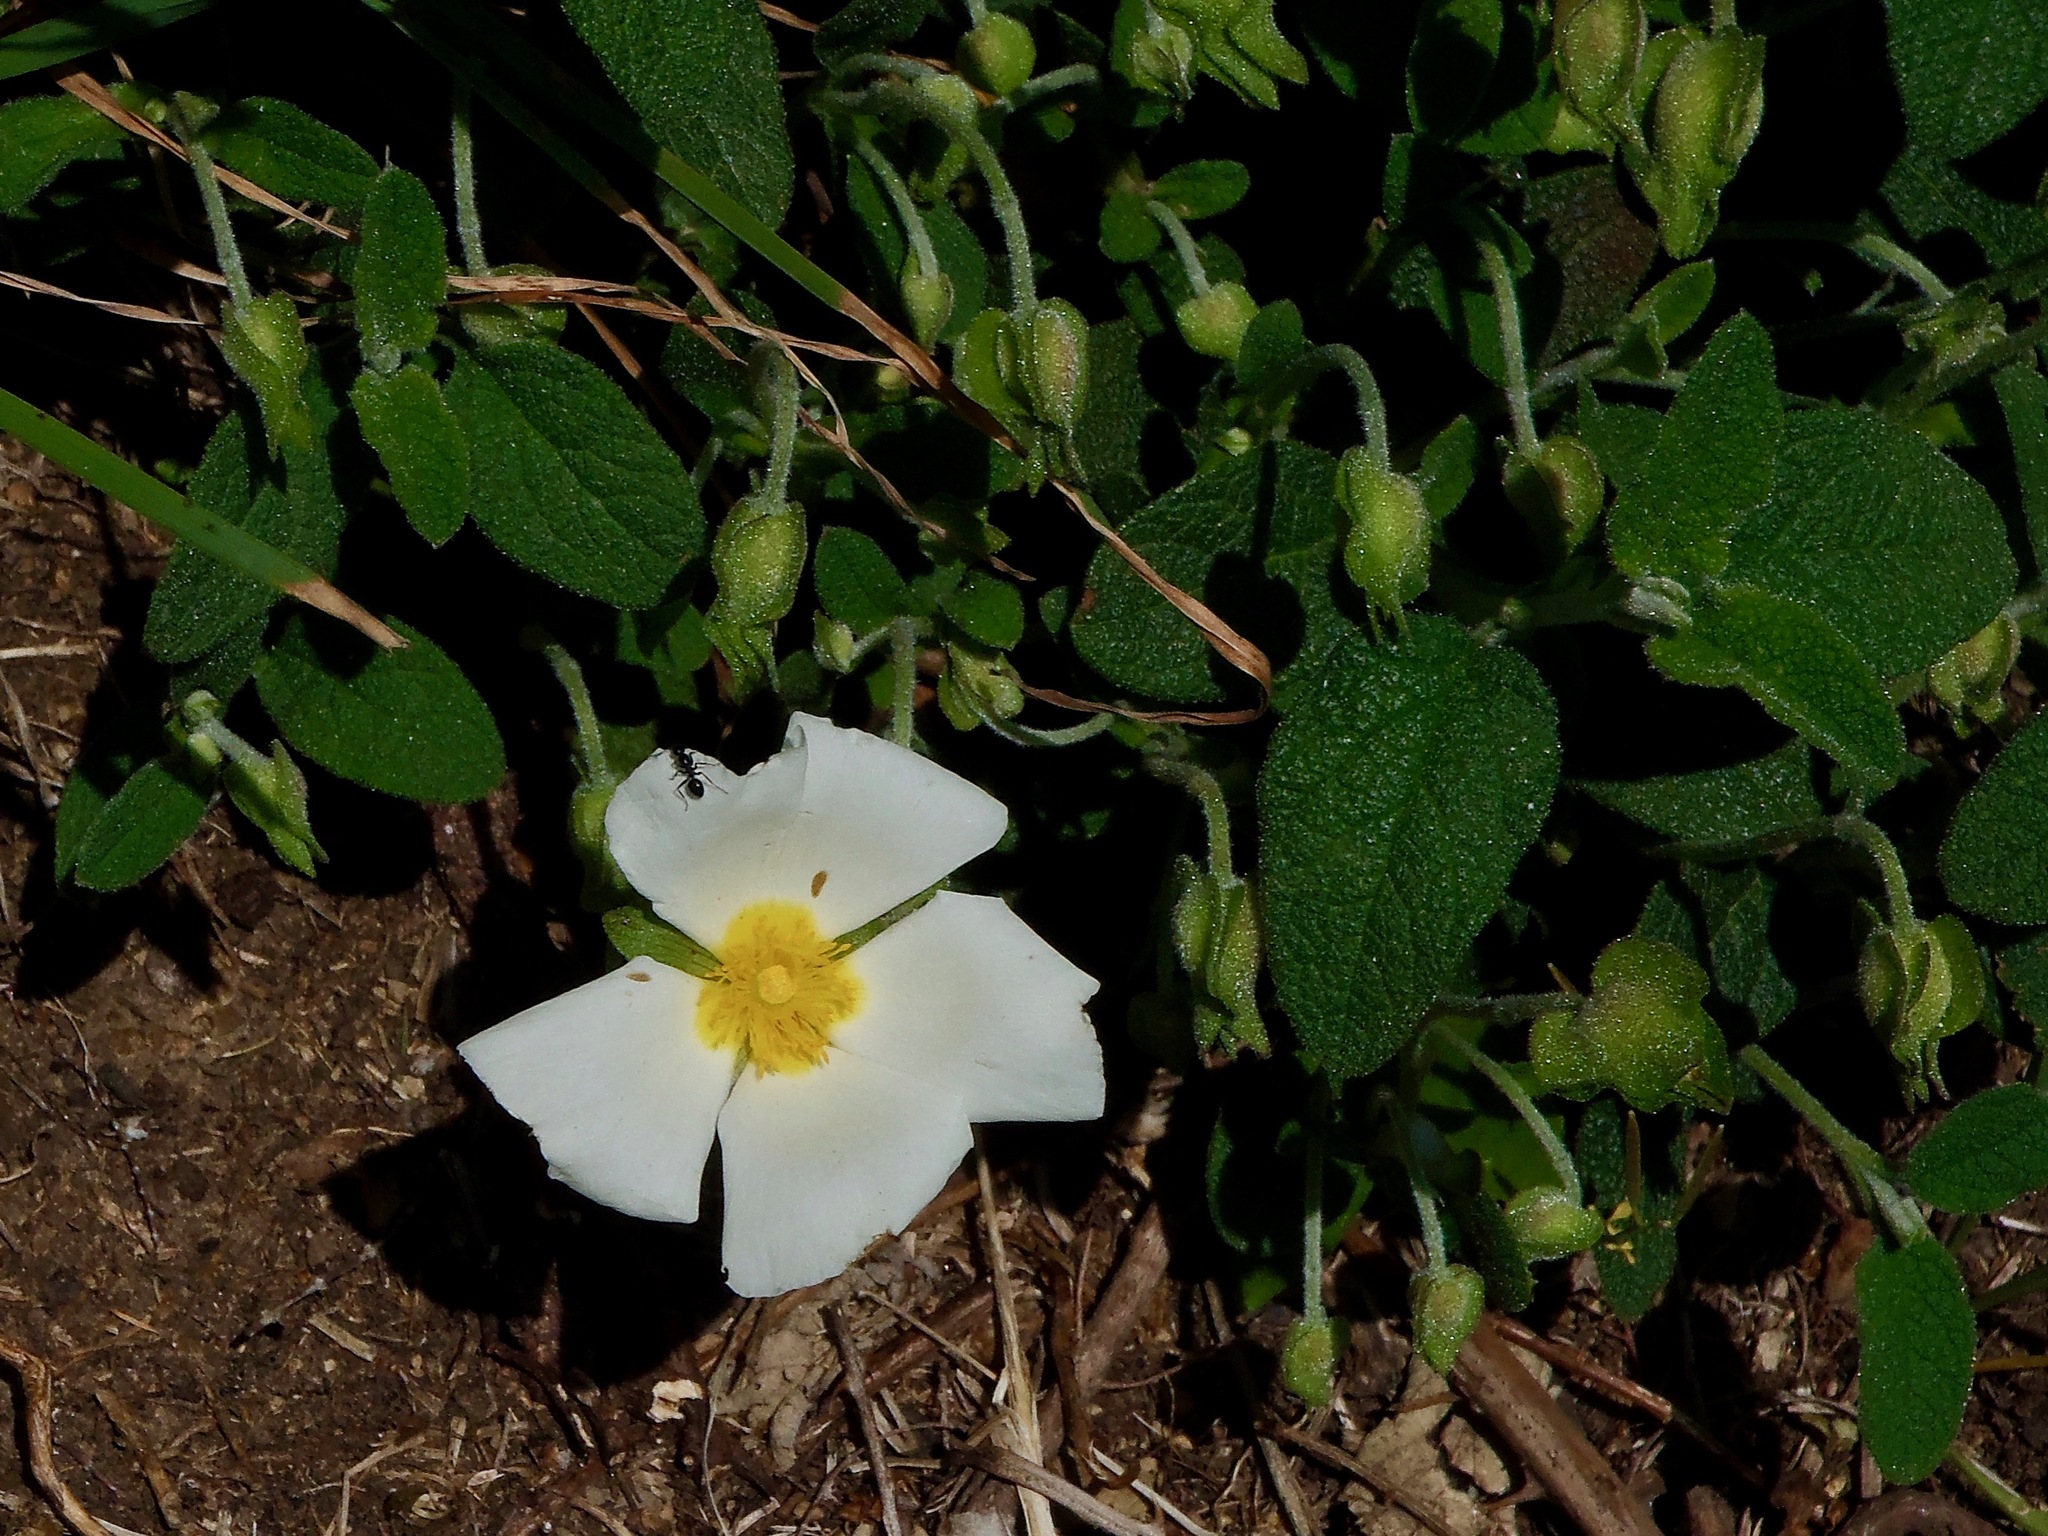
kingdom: Plantae
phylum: Tracheophyta
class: Magnoliopsida
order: Malvales
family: Cistaceae
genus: Cistus
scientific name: Cistus salviifolius
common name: Salvia cistus
